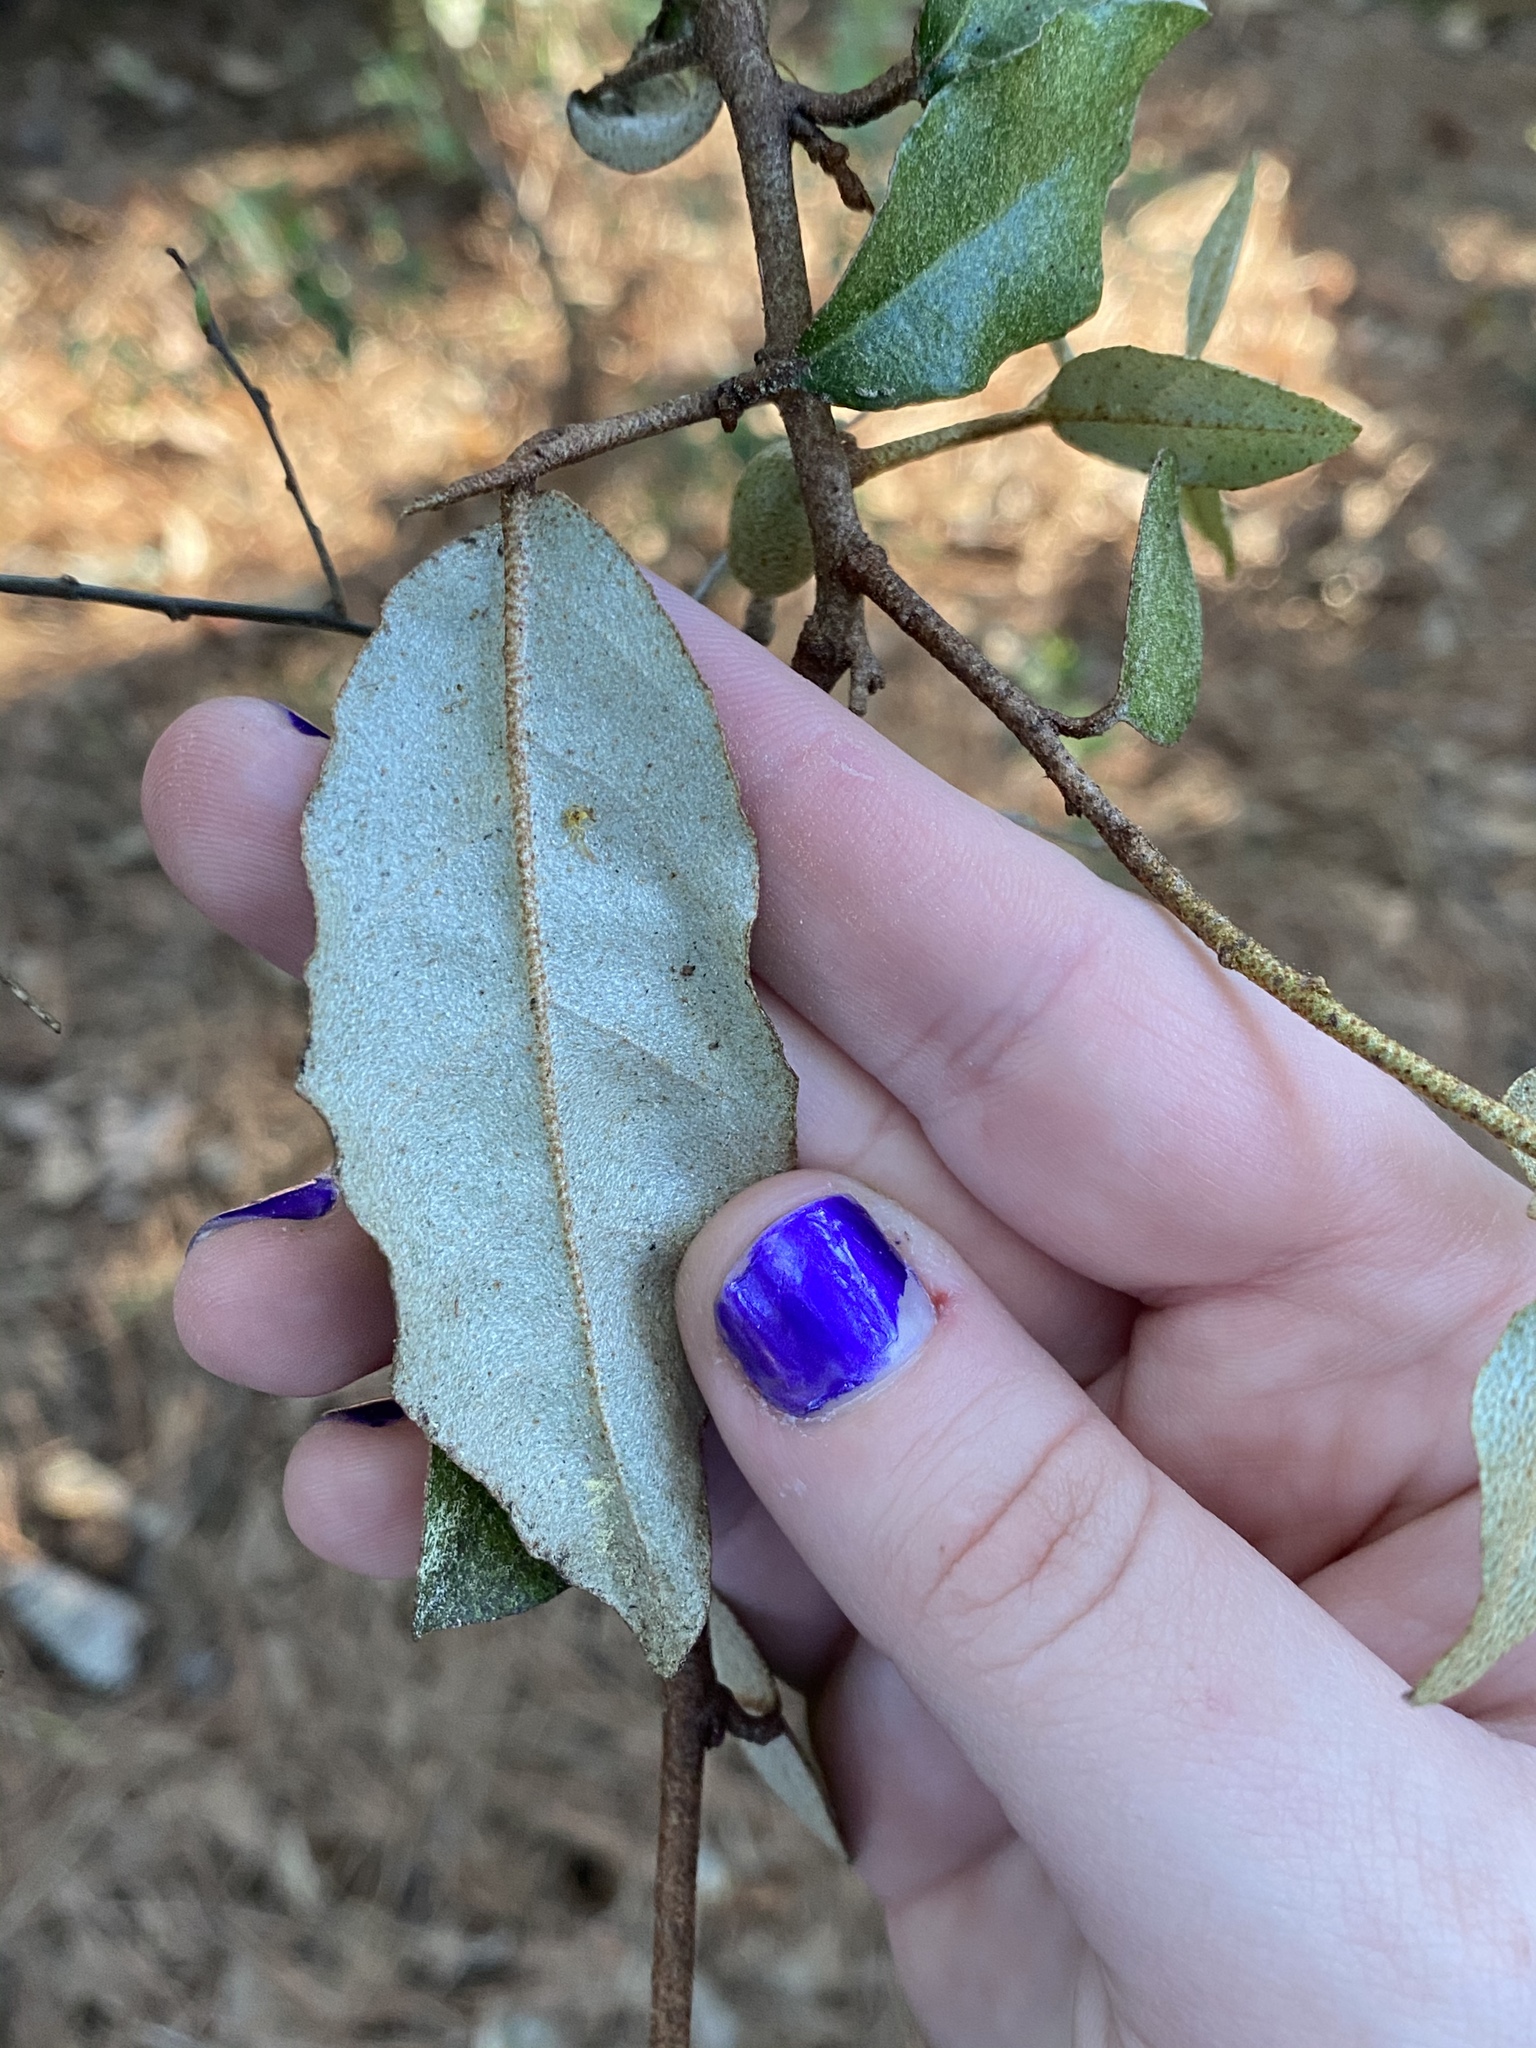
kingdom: Plantae
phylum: Tracheophyta
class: Magnoliopsida
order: Rosales
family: Elaeagnaceae
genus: Elaeagnus
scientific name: Elaeagnus pungens
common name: Spiny oleaster
